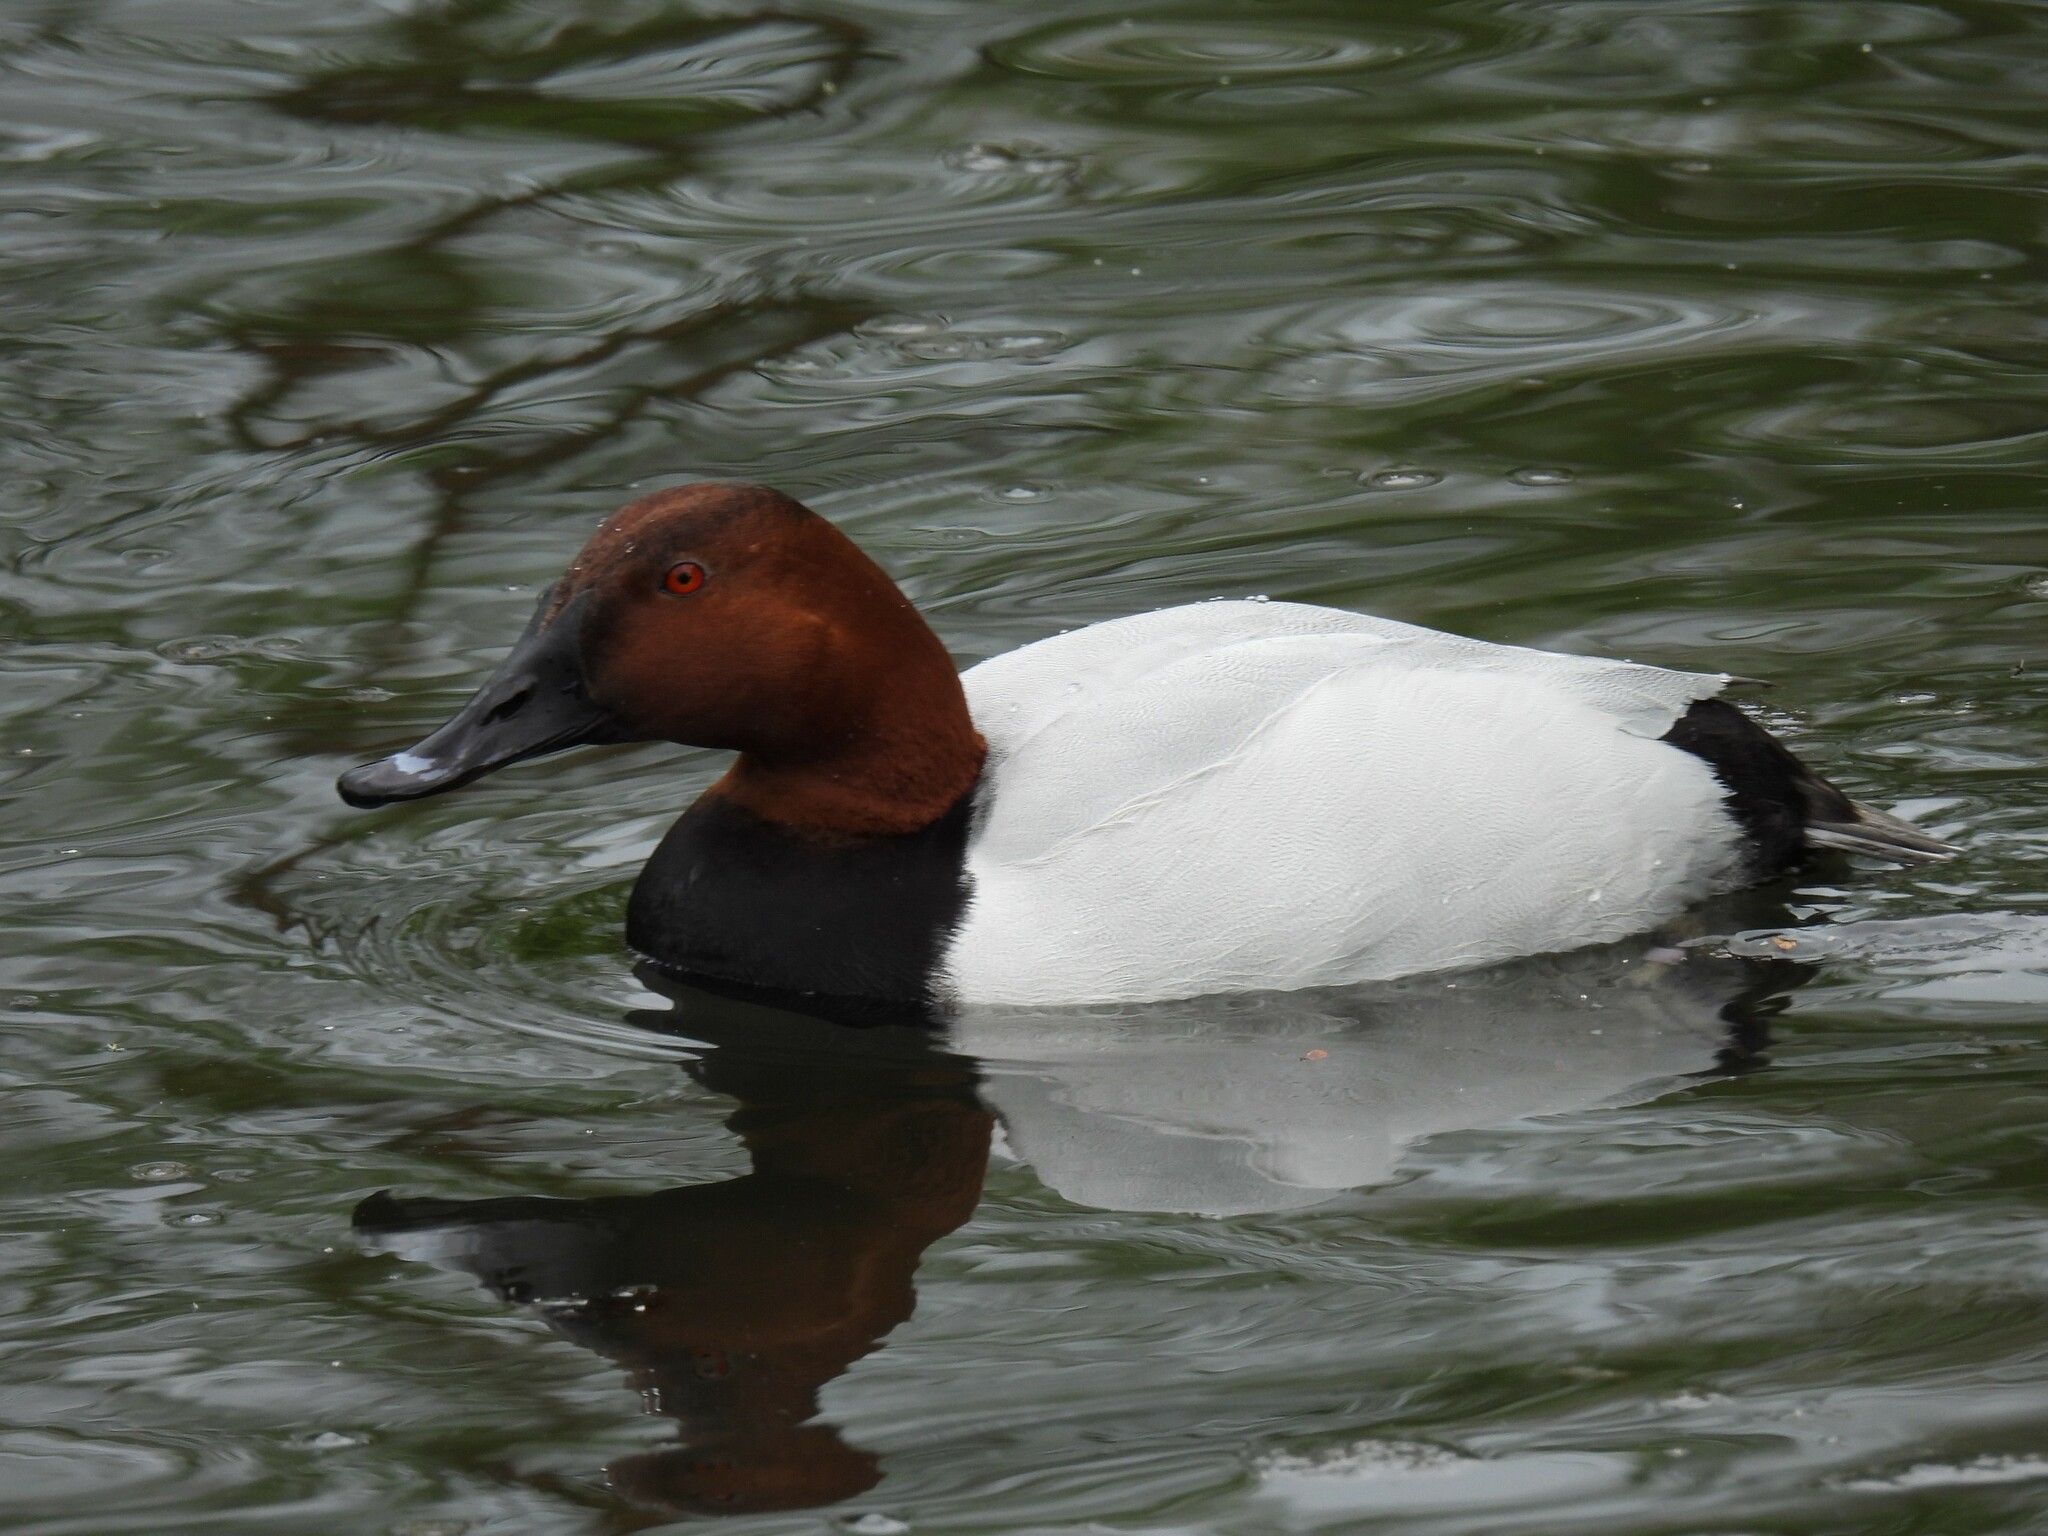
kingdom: Animalia
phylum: Chordata
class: Aves
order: Anseriformes
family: Anatidae
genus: Aythya
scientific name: Aythya ferina
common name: Common pochard
